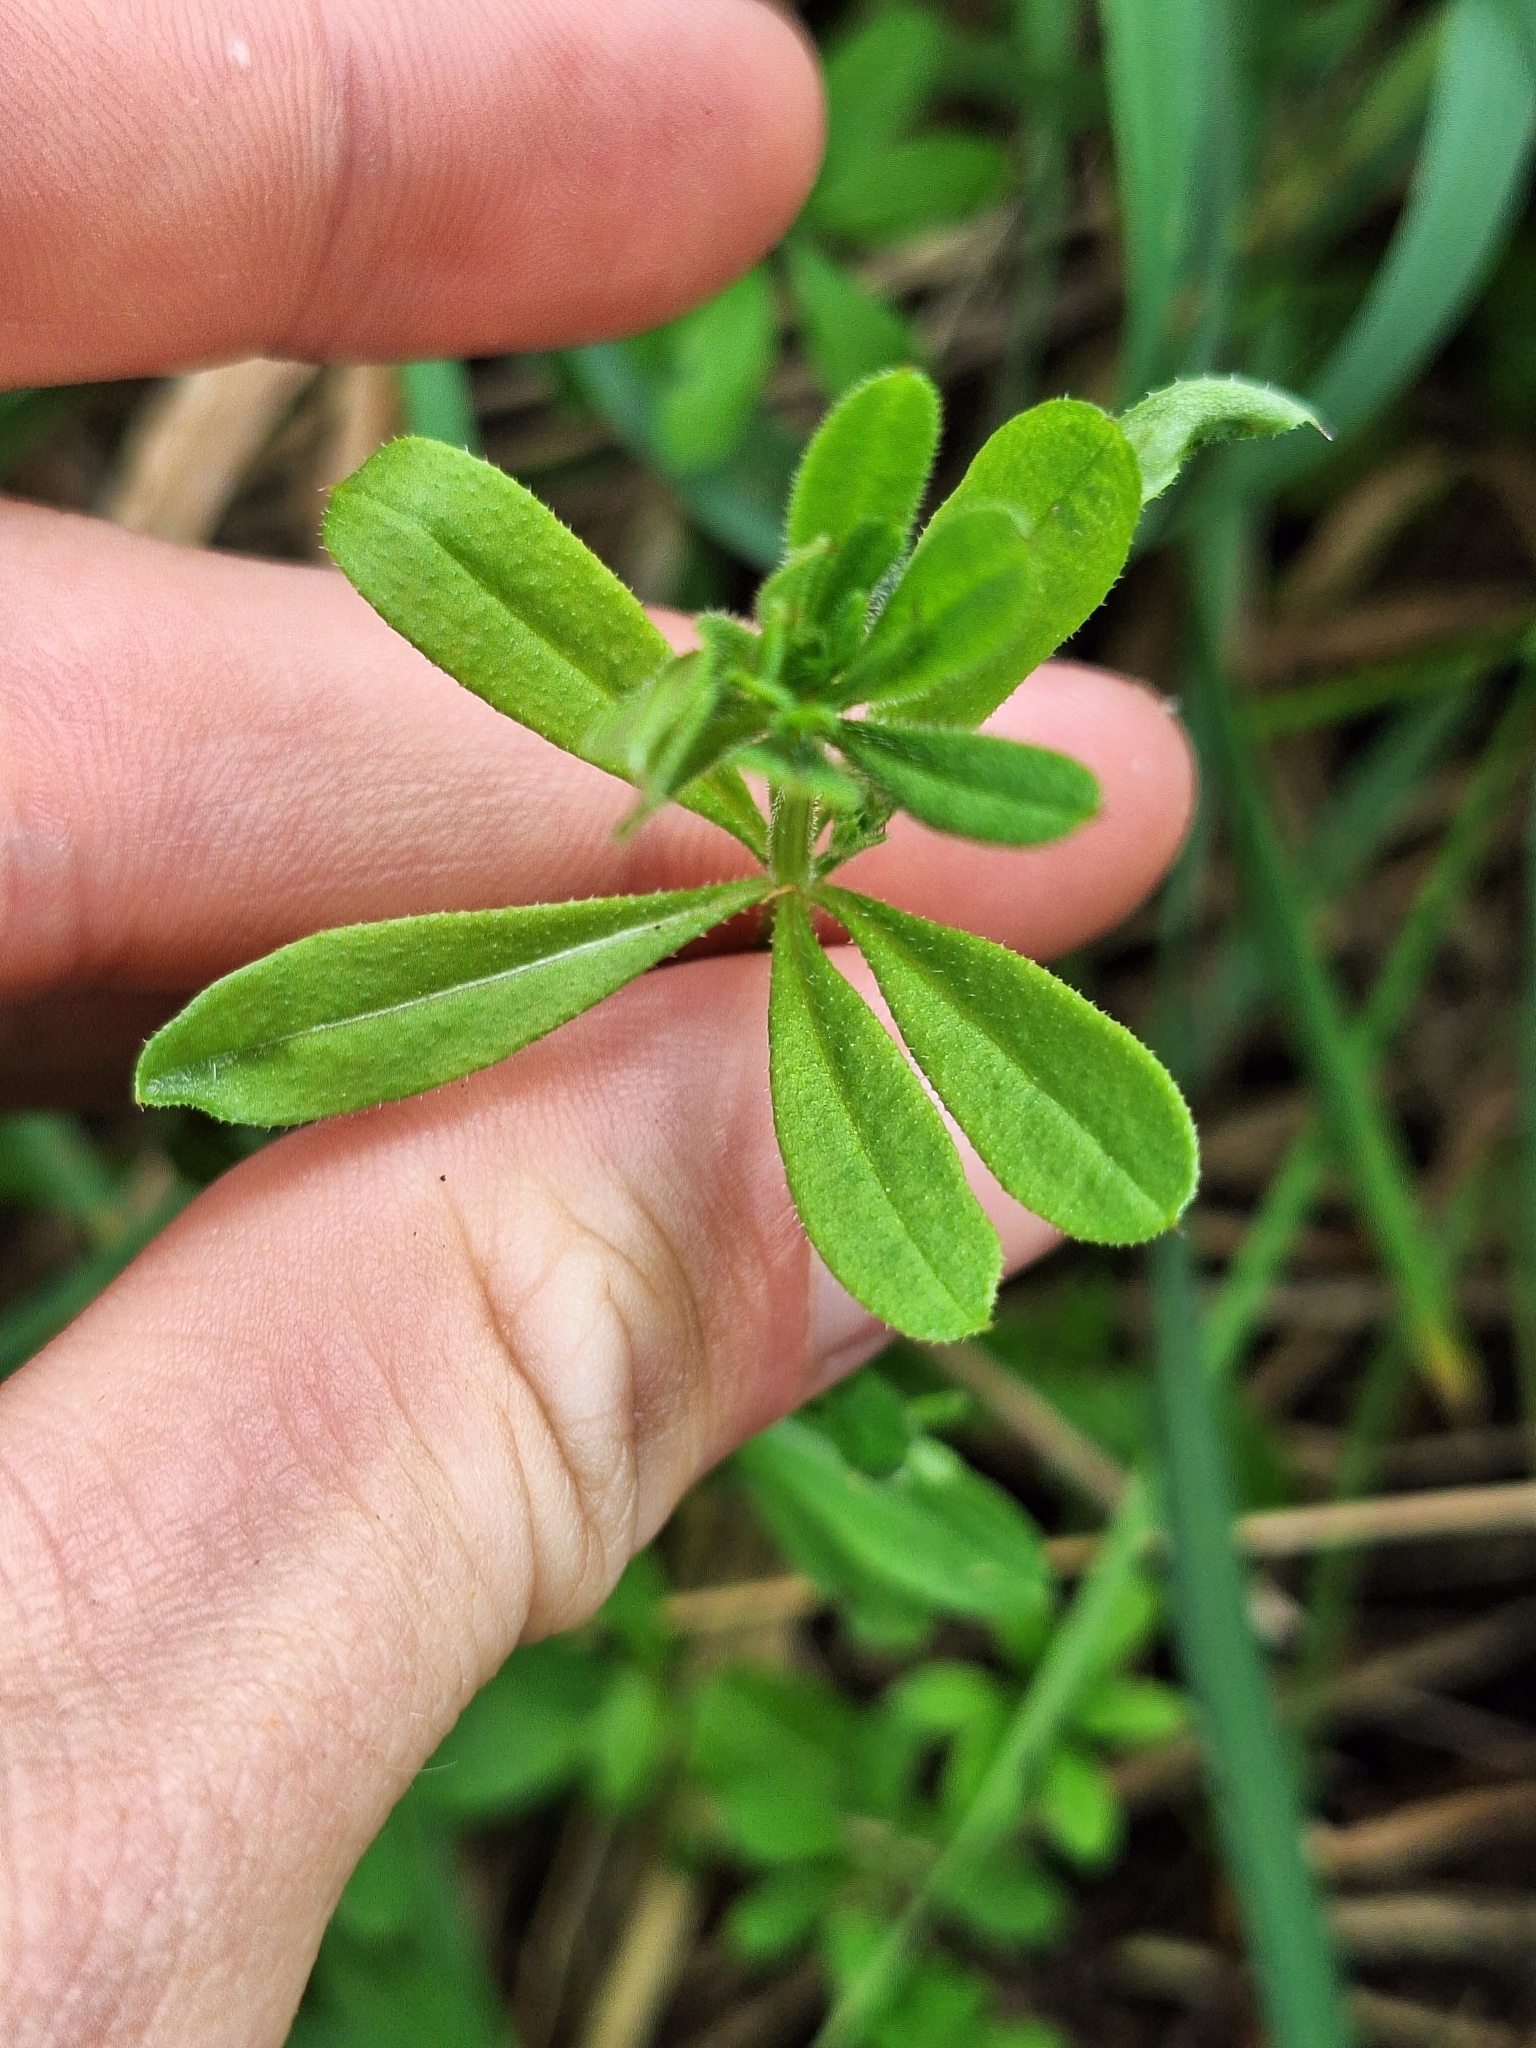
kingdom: Plantae
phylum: Tracheophyta
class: Magnoliopsida
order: Gentianales
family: Rubiaceae
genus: Galium
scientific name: Galium aparine
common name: Cleavers
